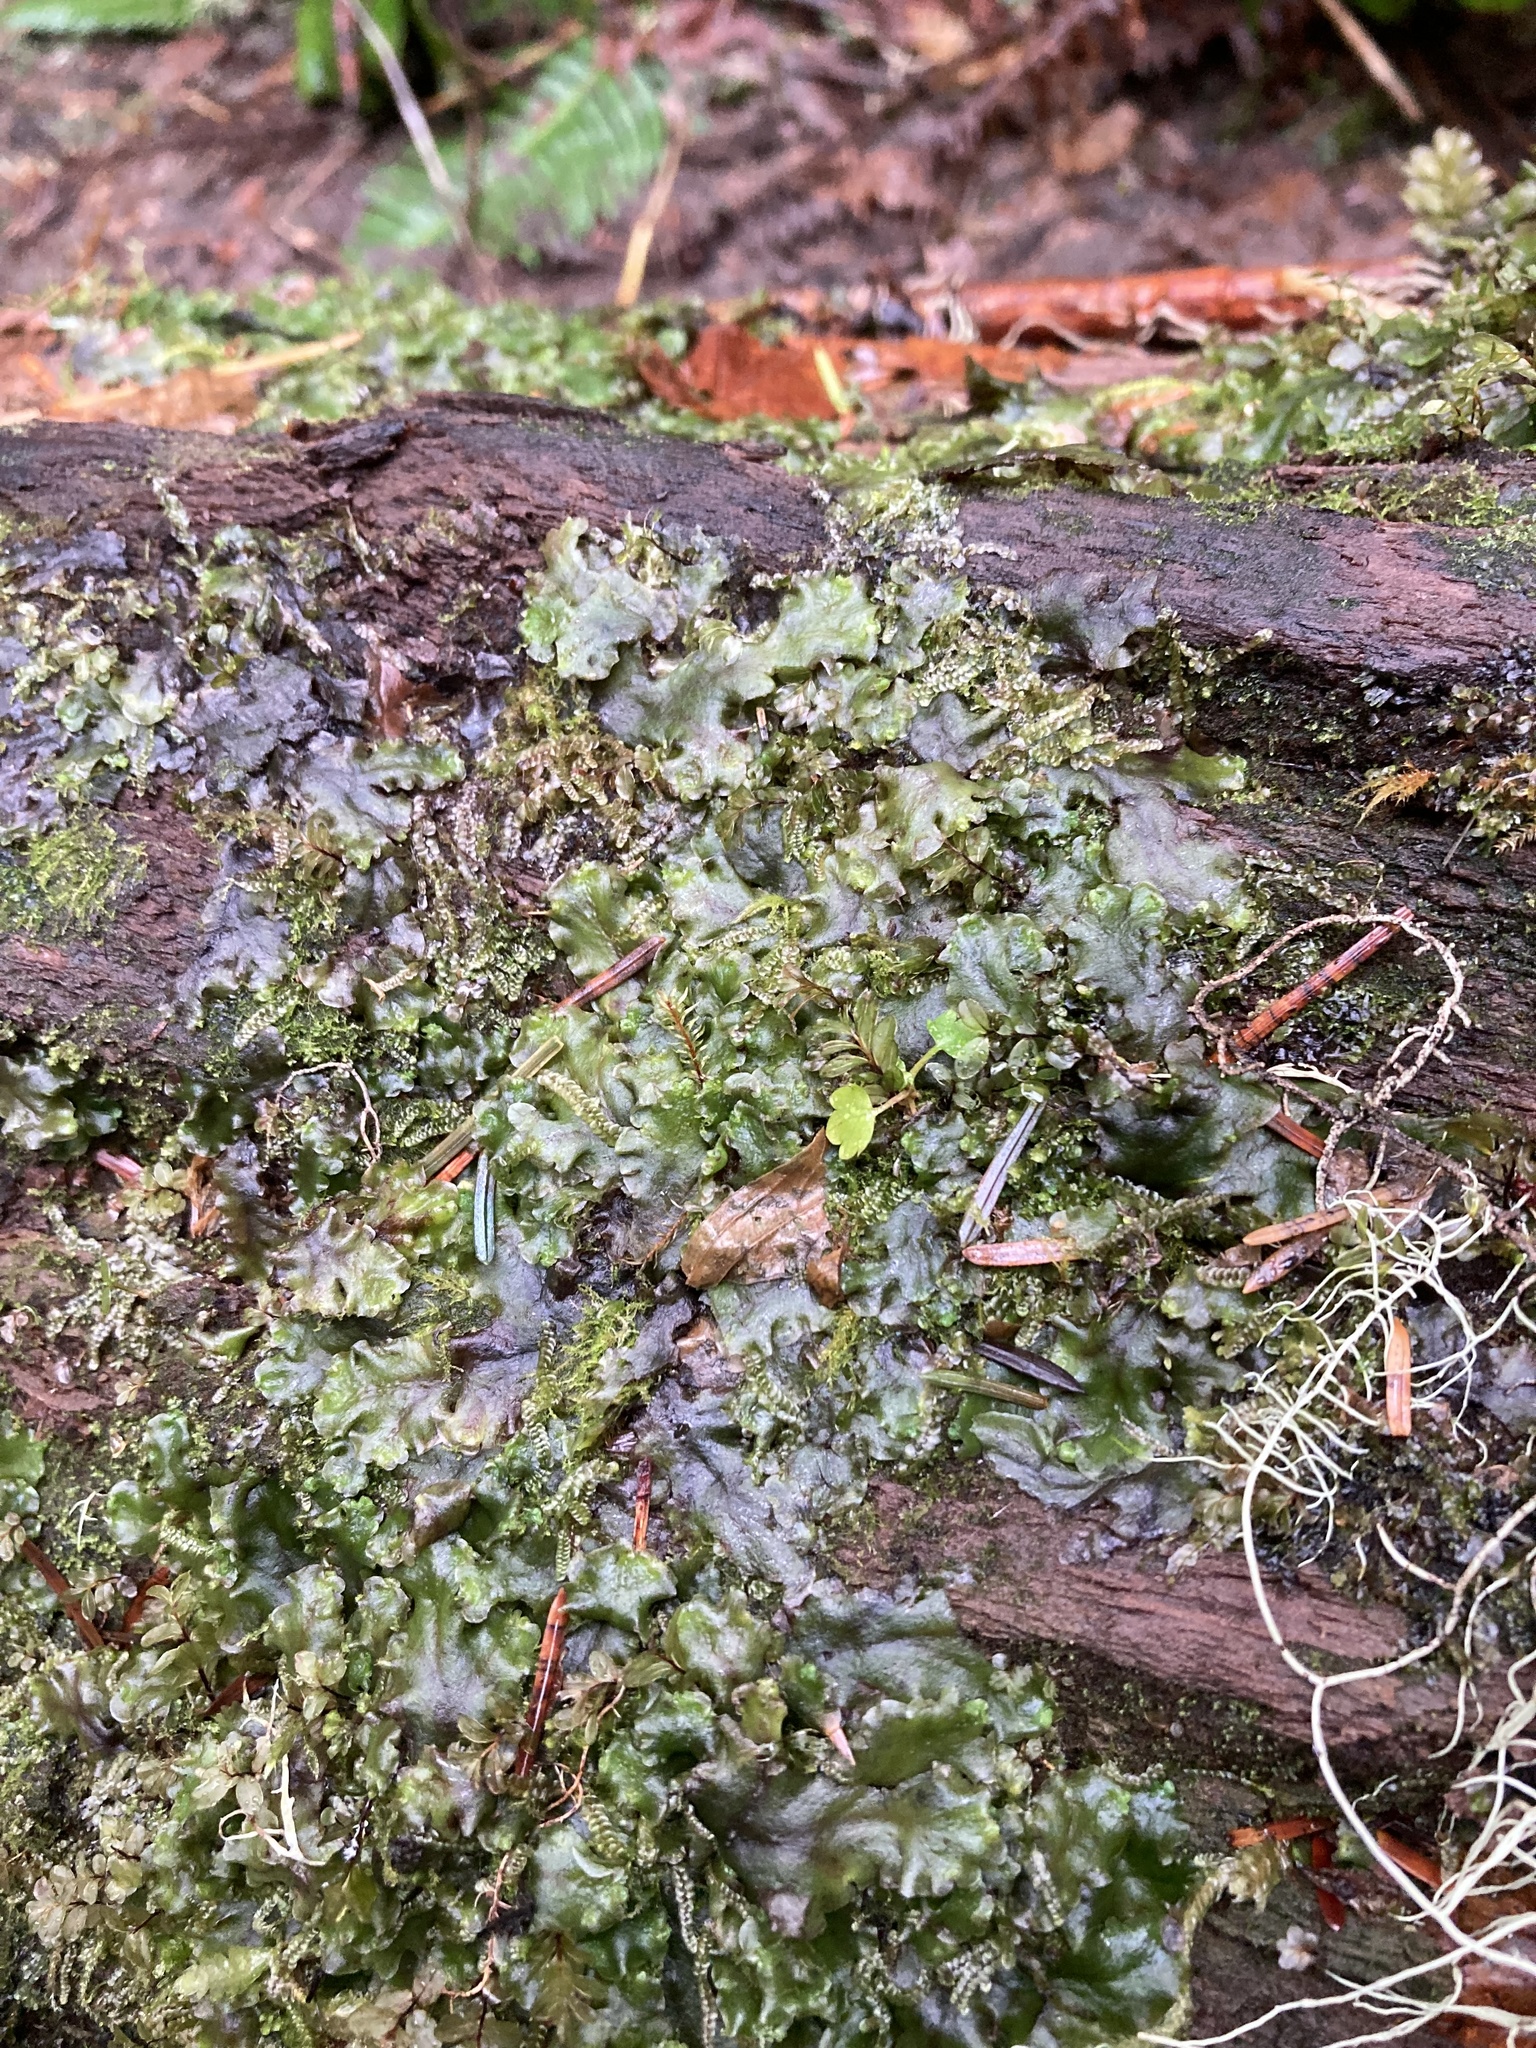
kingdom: Plantae
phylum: Marchantiophyta
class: Jungermanniopsida
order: Pelliales
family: Pelliaceae
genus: Pellia
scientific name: Pellia neesiana
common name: Nees  pellia
